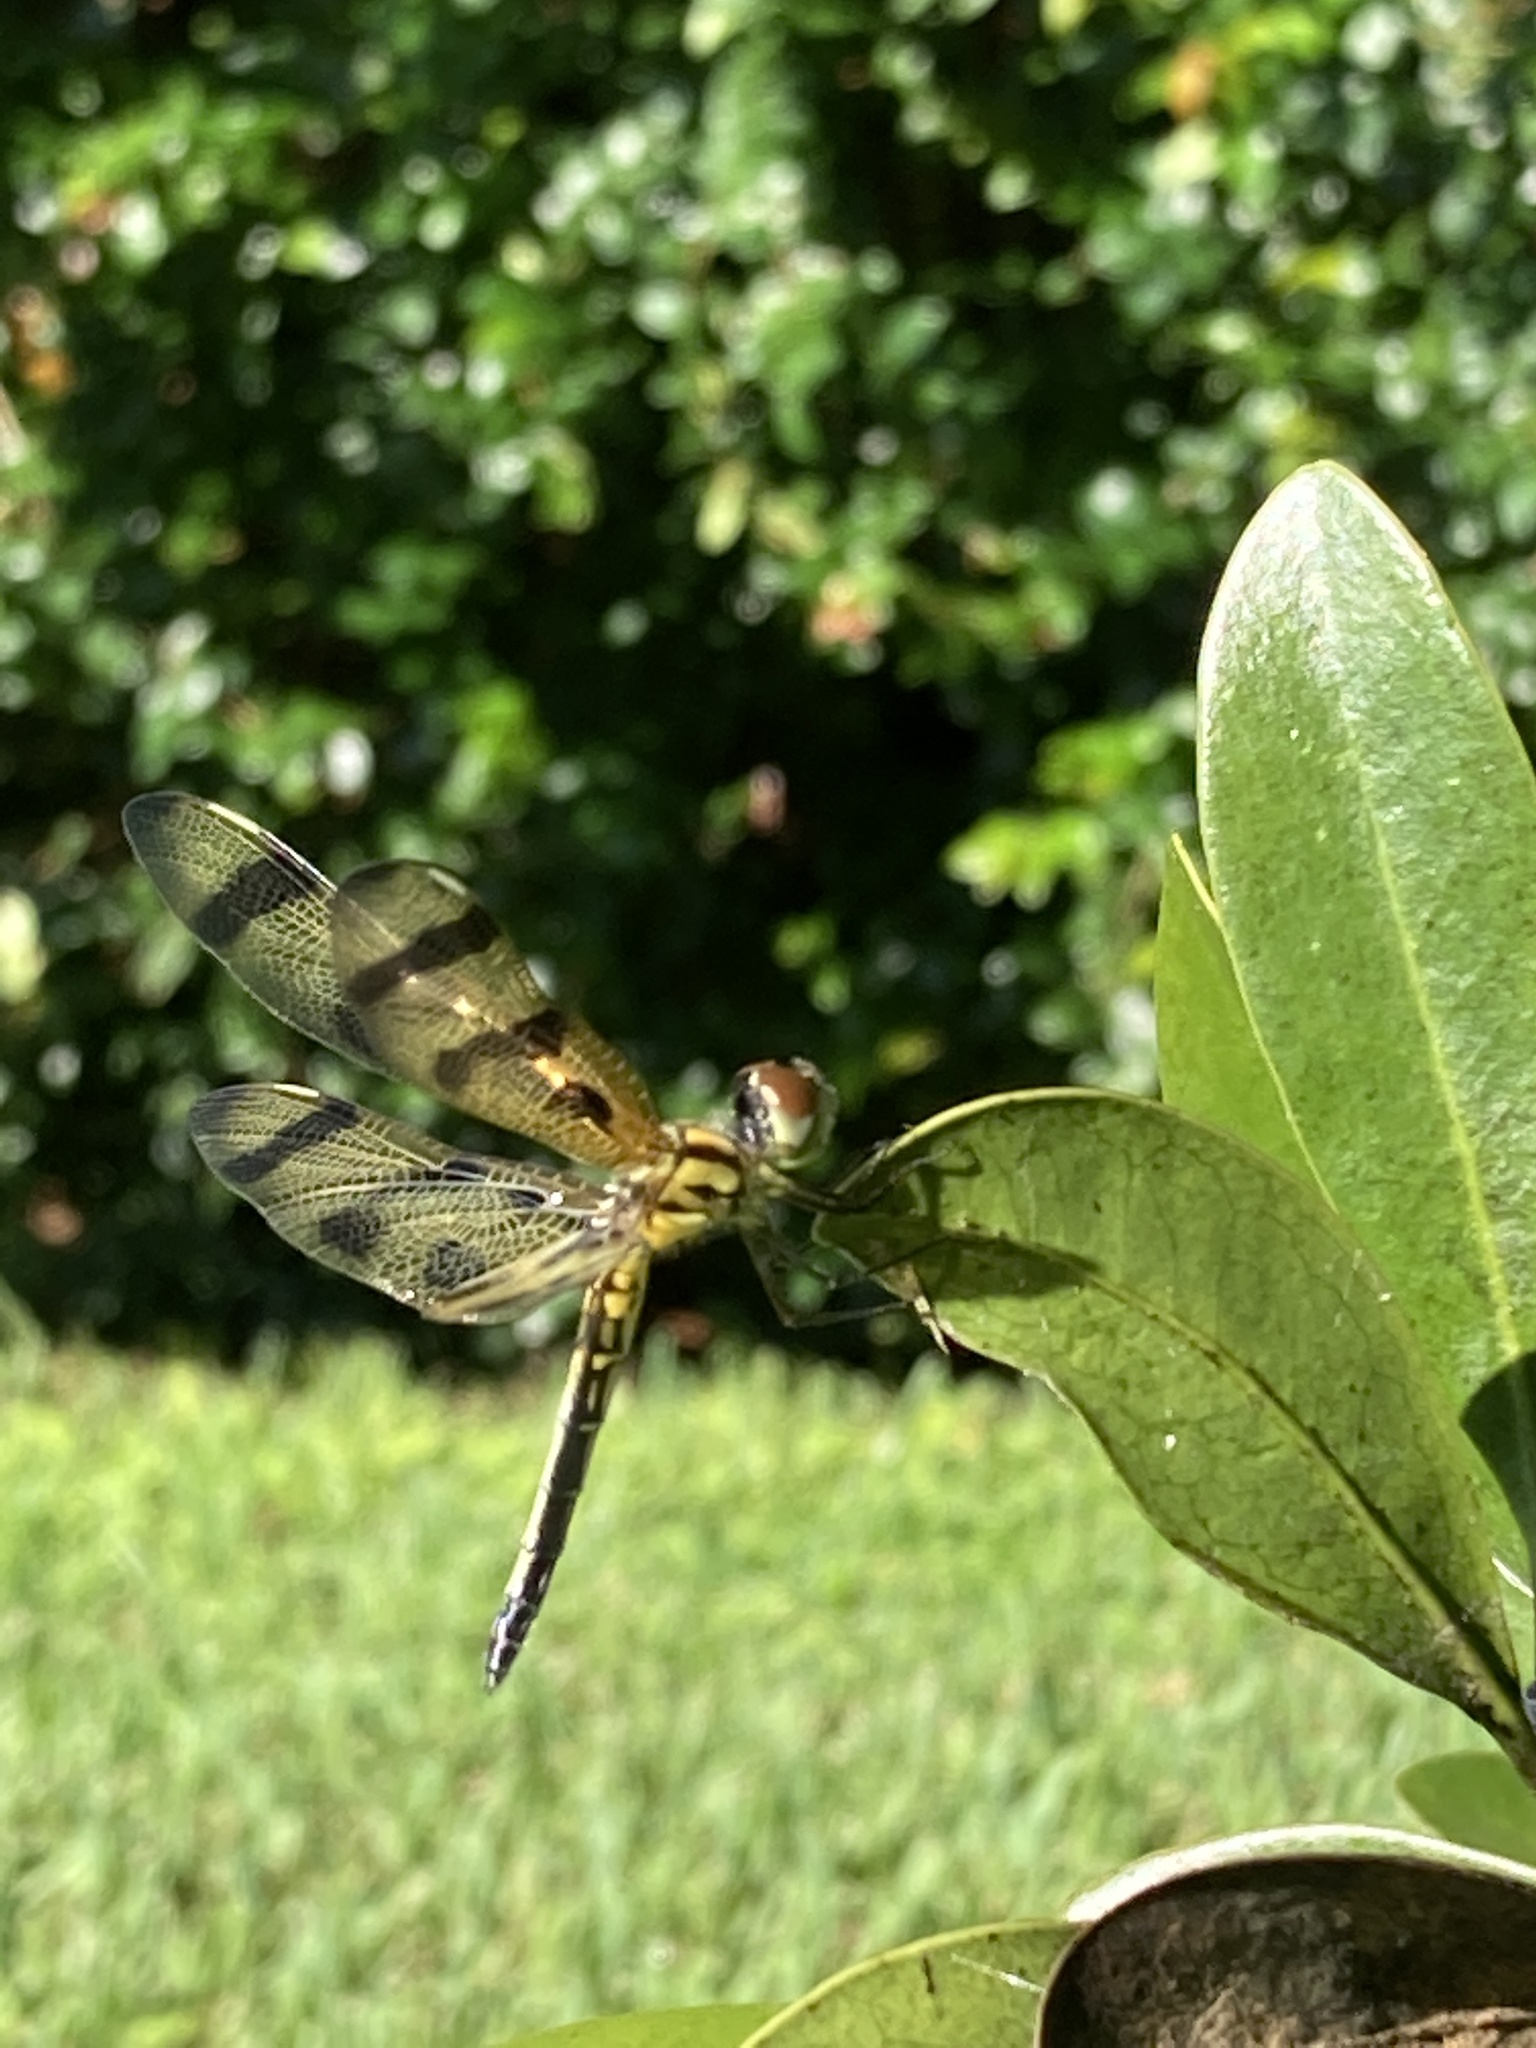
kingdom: Animalia
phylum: Arthropoda
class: Insecta
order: Odonata
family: Libellulidae
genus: Celithemis
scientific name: Celithemis eponina
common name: Halloween pennant
